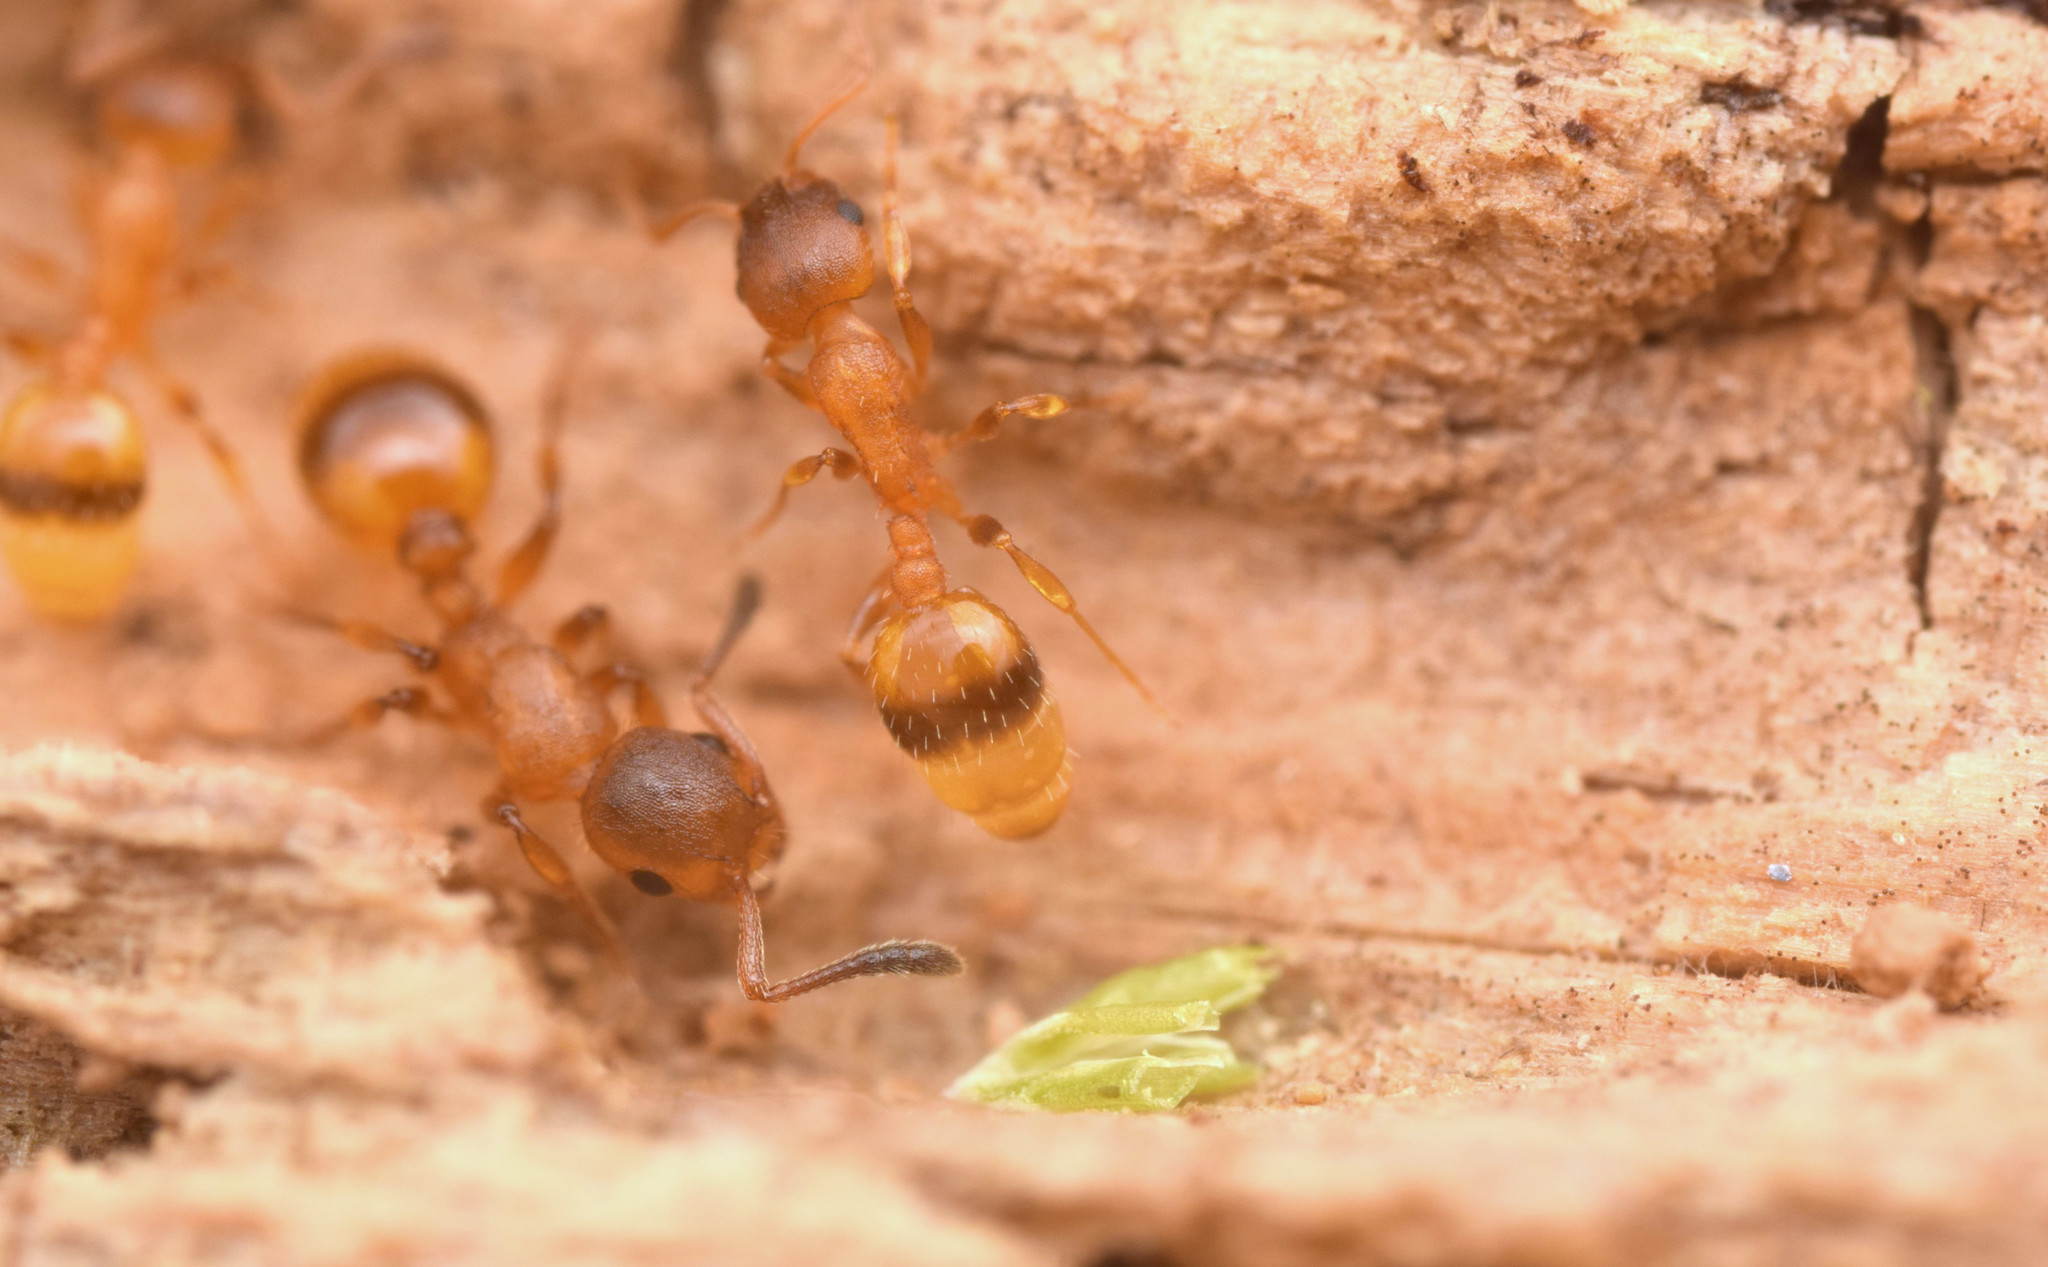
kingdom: Animalia
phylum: Arthropoda
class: Insecta
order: Hymenoptera
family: Formicidae
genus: Epimyrma
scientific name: Epimyrma ravouxi
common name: Ravoux's slavemaker ant
